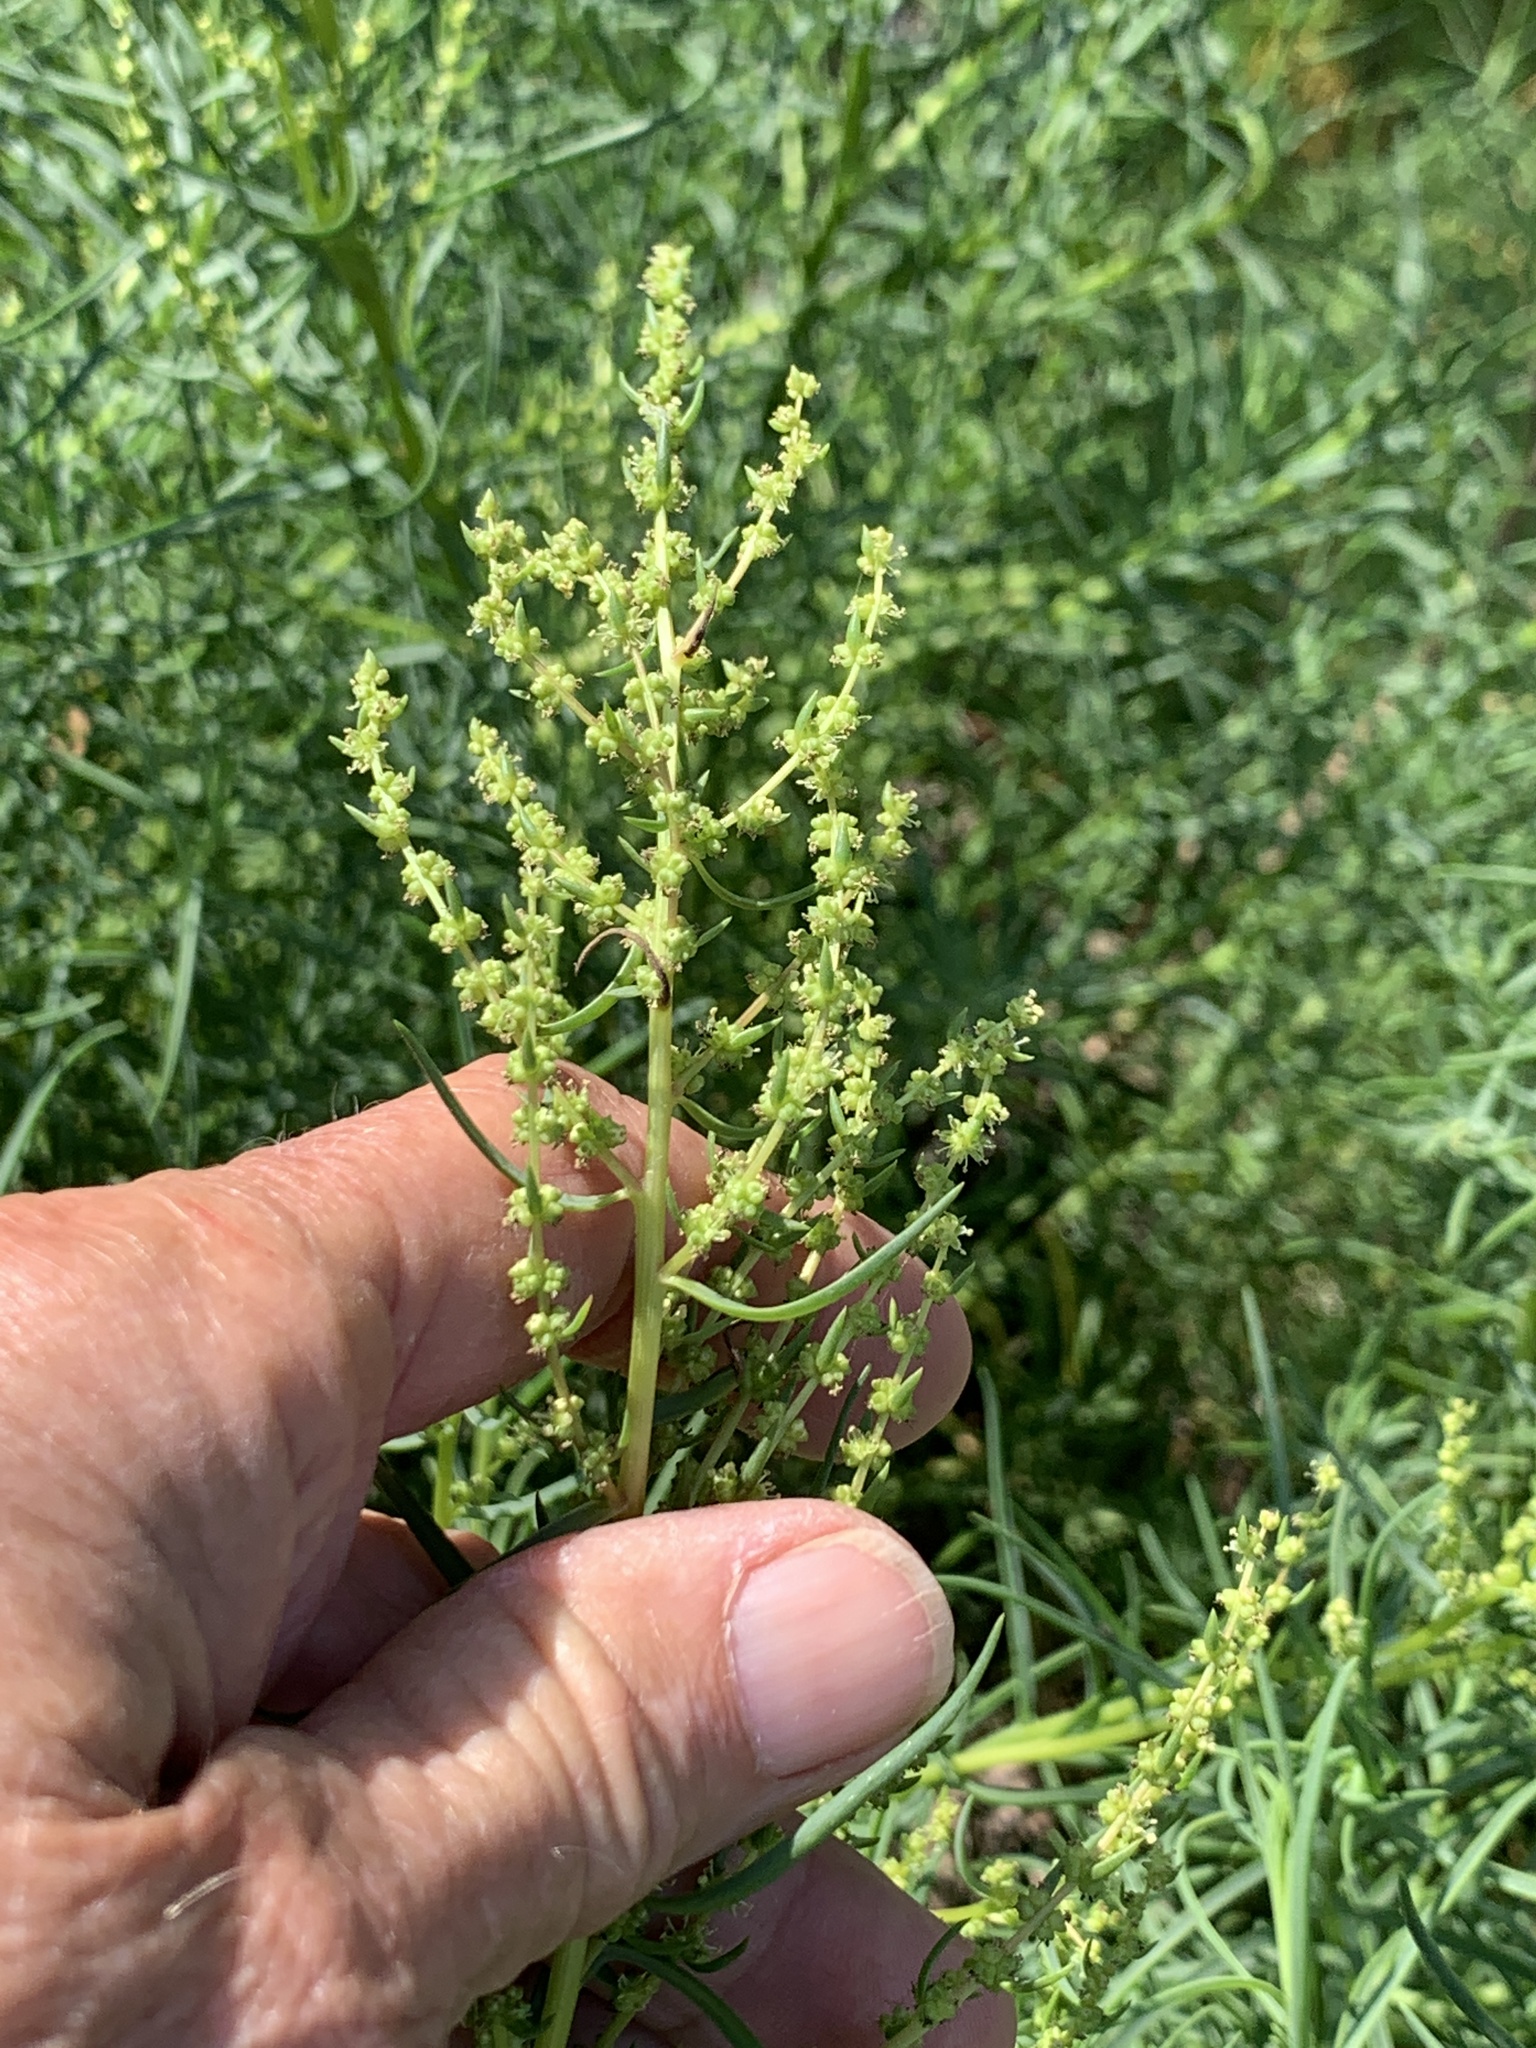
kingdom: Plantae
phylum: Tracheophyta
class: Magnoliopsida
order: Caryophyllales
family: Amaranthaceae
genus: Suaeda
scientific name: Suaeda linearis
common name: Annual seepweed
